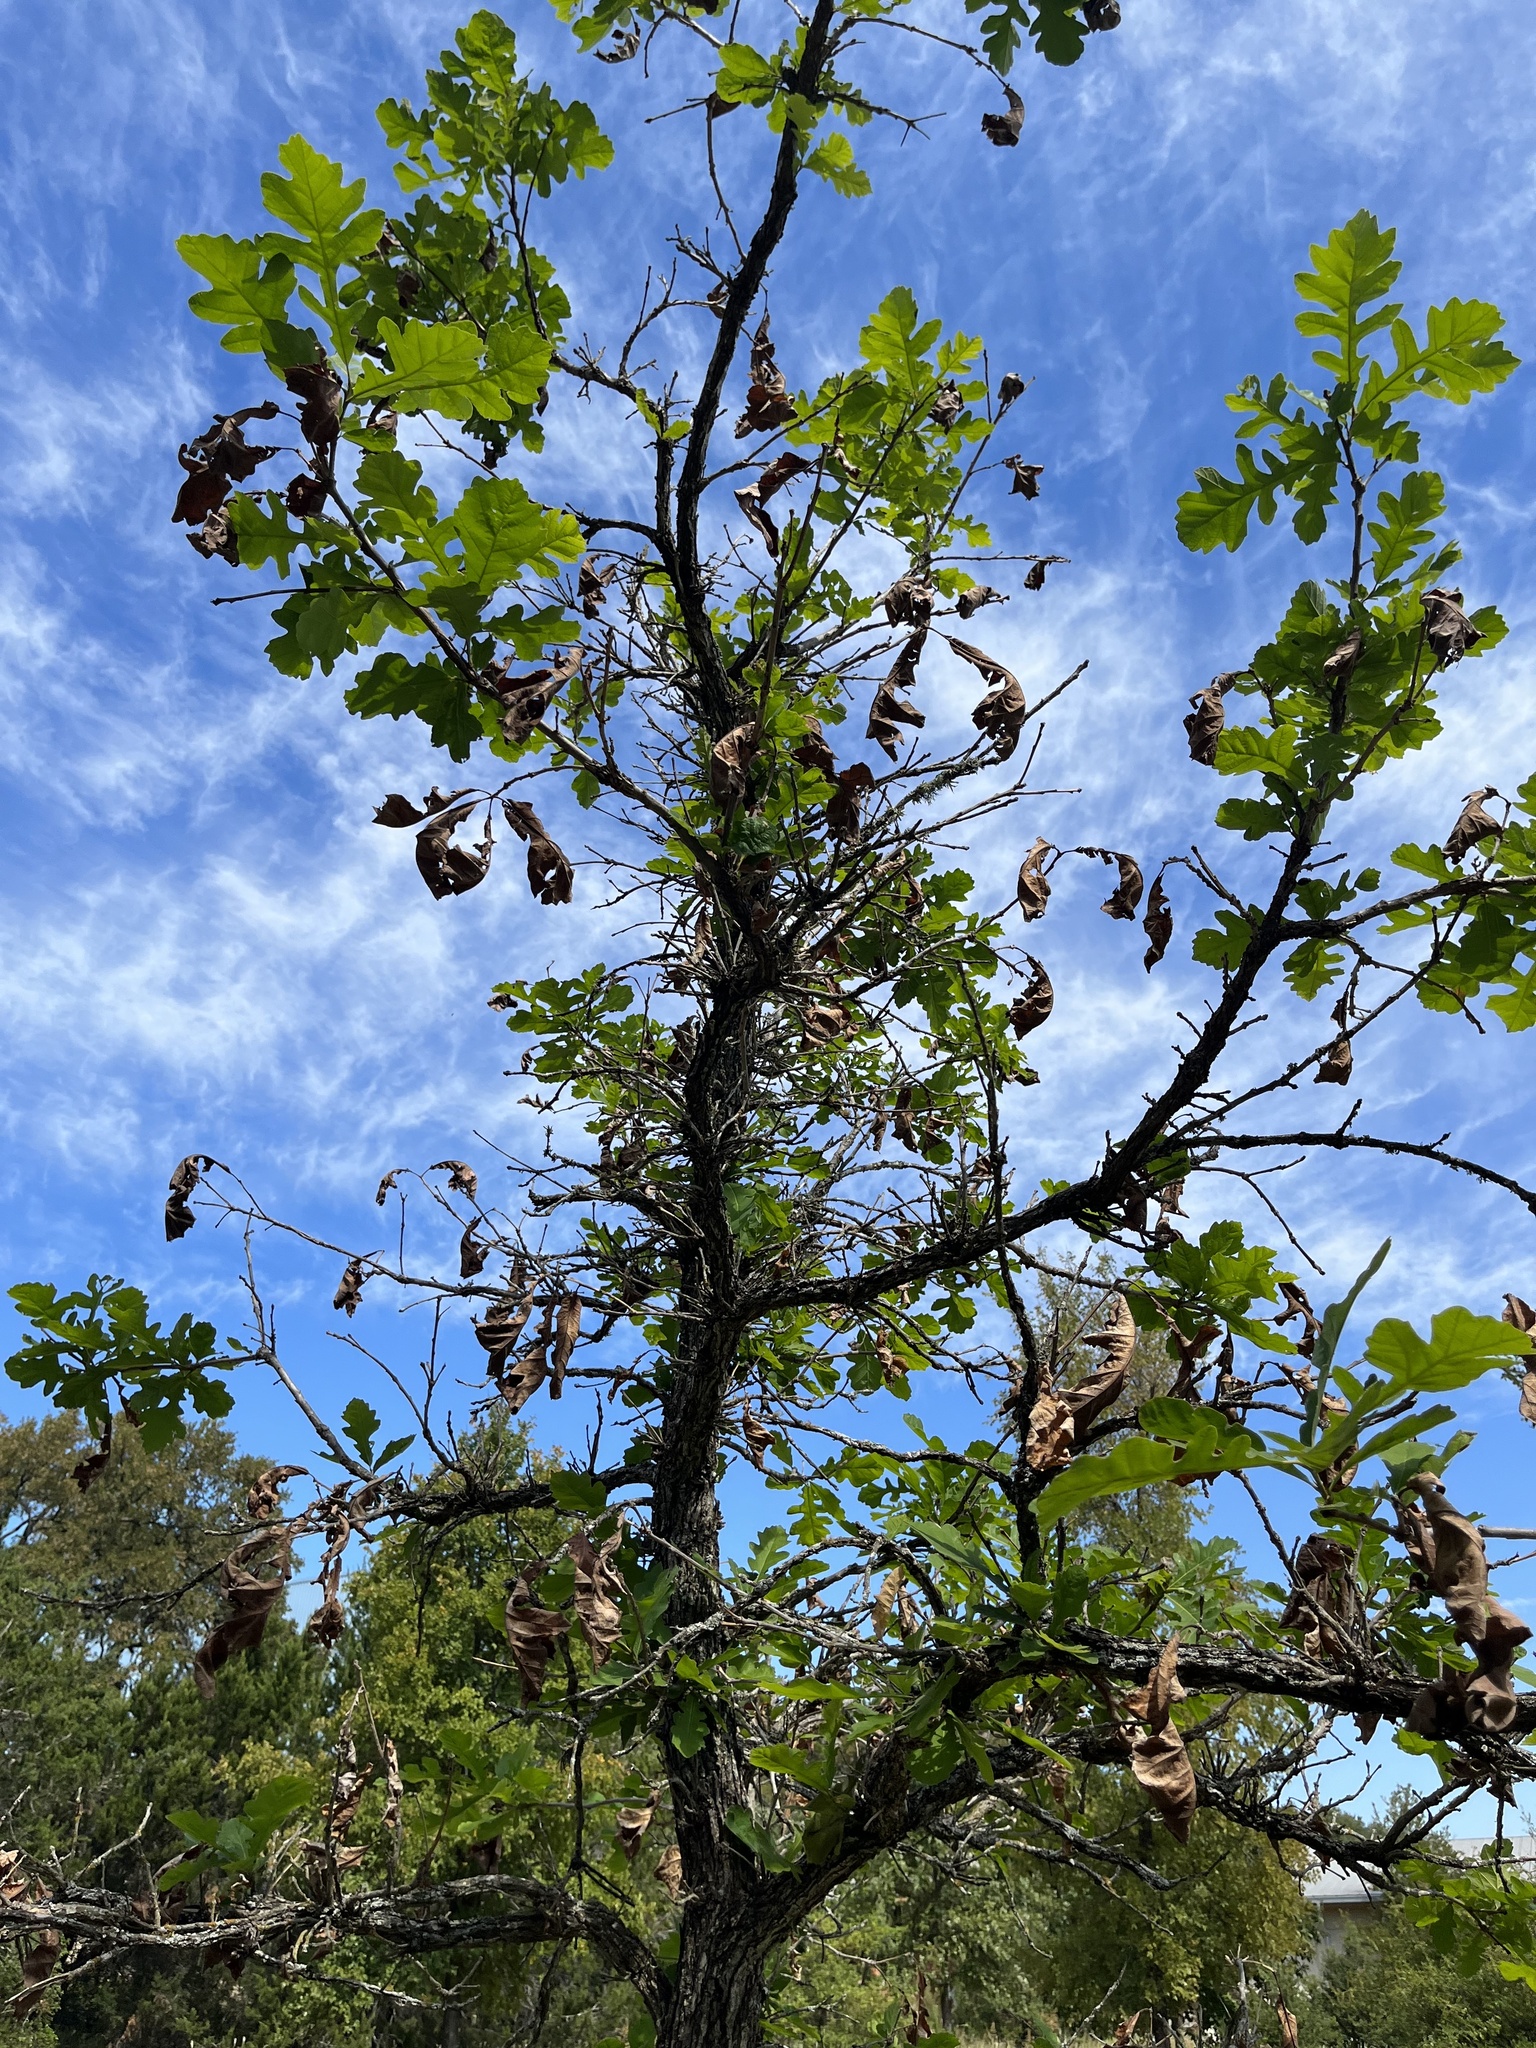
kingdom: Plantae
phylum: Tracheophyta
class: Magnoliopsida
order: Fagales
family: Fagaceae
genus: Quercus
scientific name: Quercus macrocarpa
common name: Bur oak
